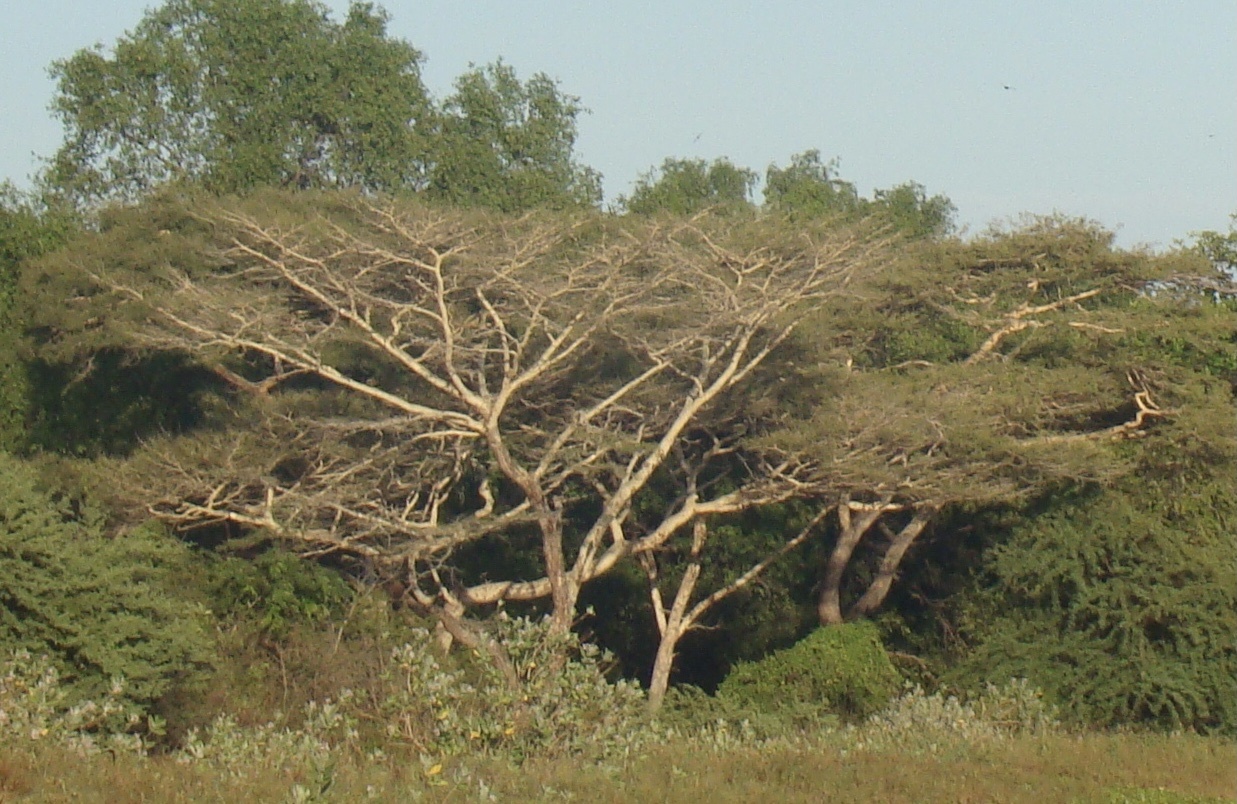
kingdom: Plantae
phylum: Tracheophyta
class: Magnoliopsida
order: Fabales
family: Fabaceae
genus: Vachellia
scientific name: Vachellia leucophloea
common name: Distiller's acacia
